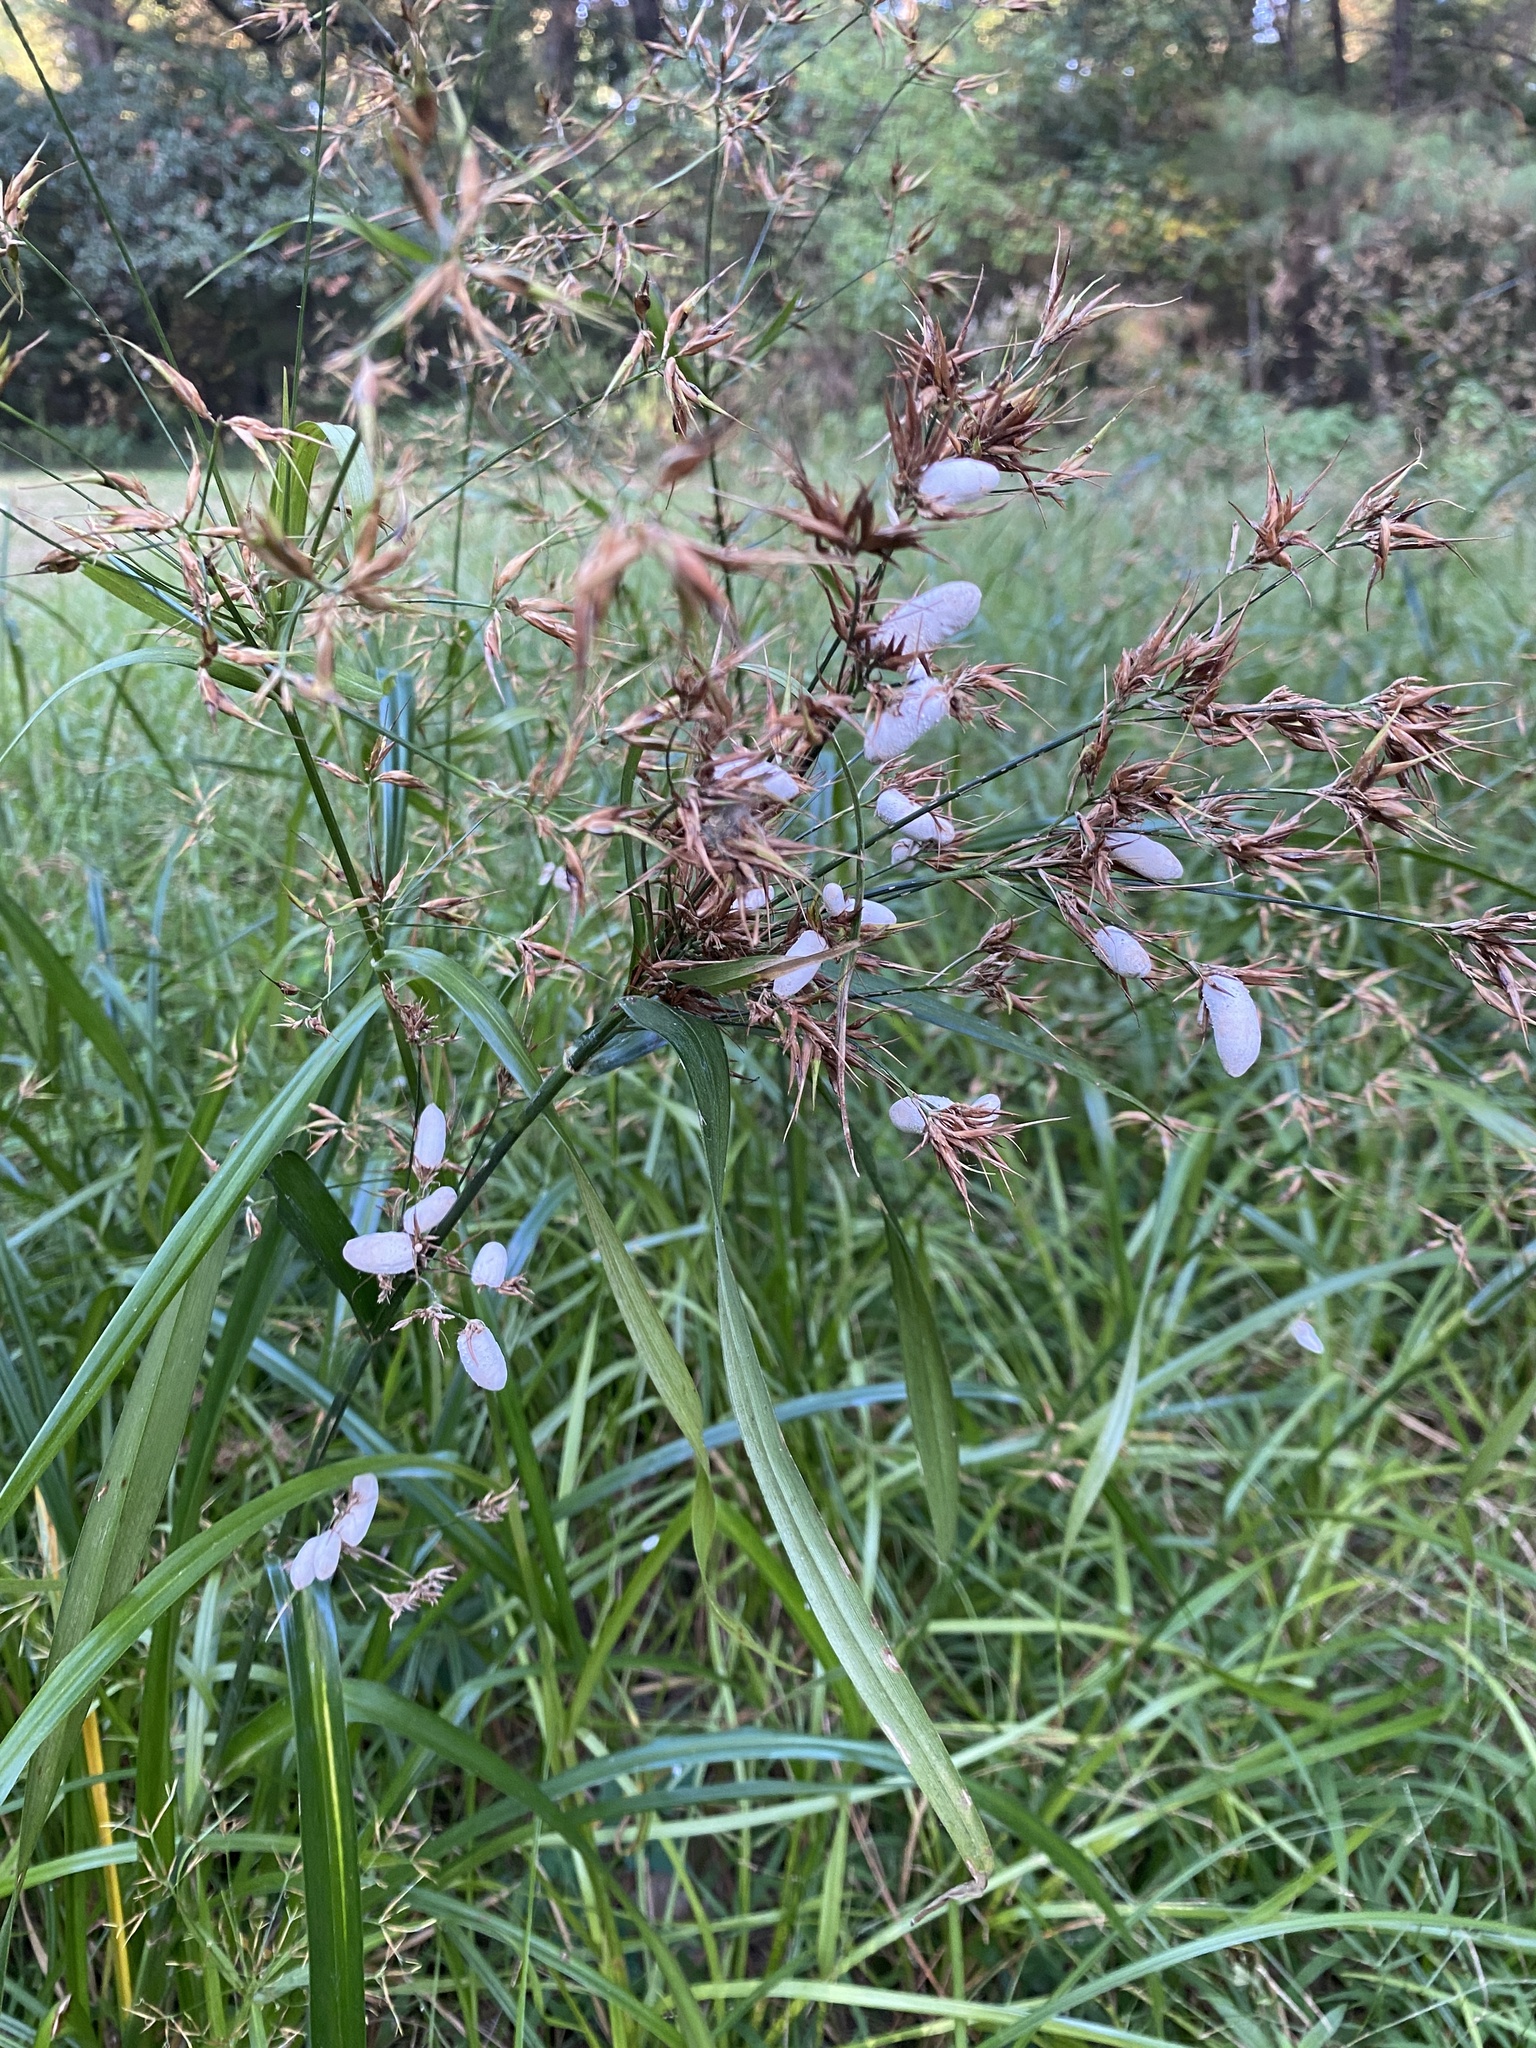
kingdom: Fungi
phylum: Basidiomycota
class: Ustilaginomycetes
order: Ustilaginales
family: Anthracoideaceae
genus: Testicularia
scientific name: Testicularia cyperi
